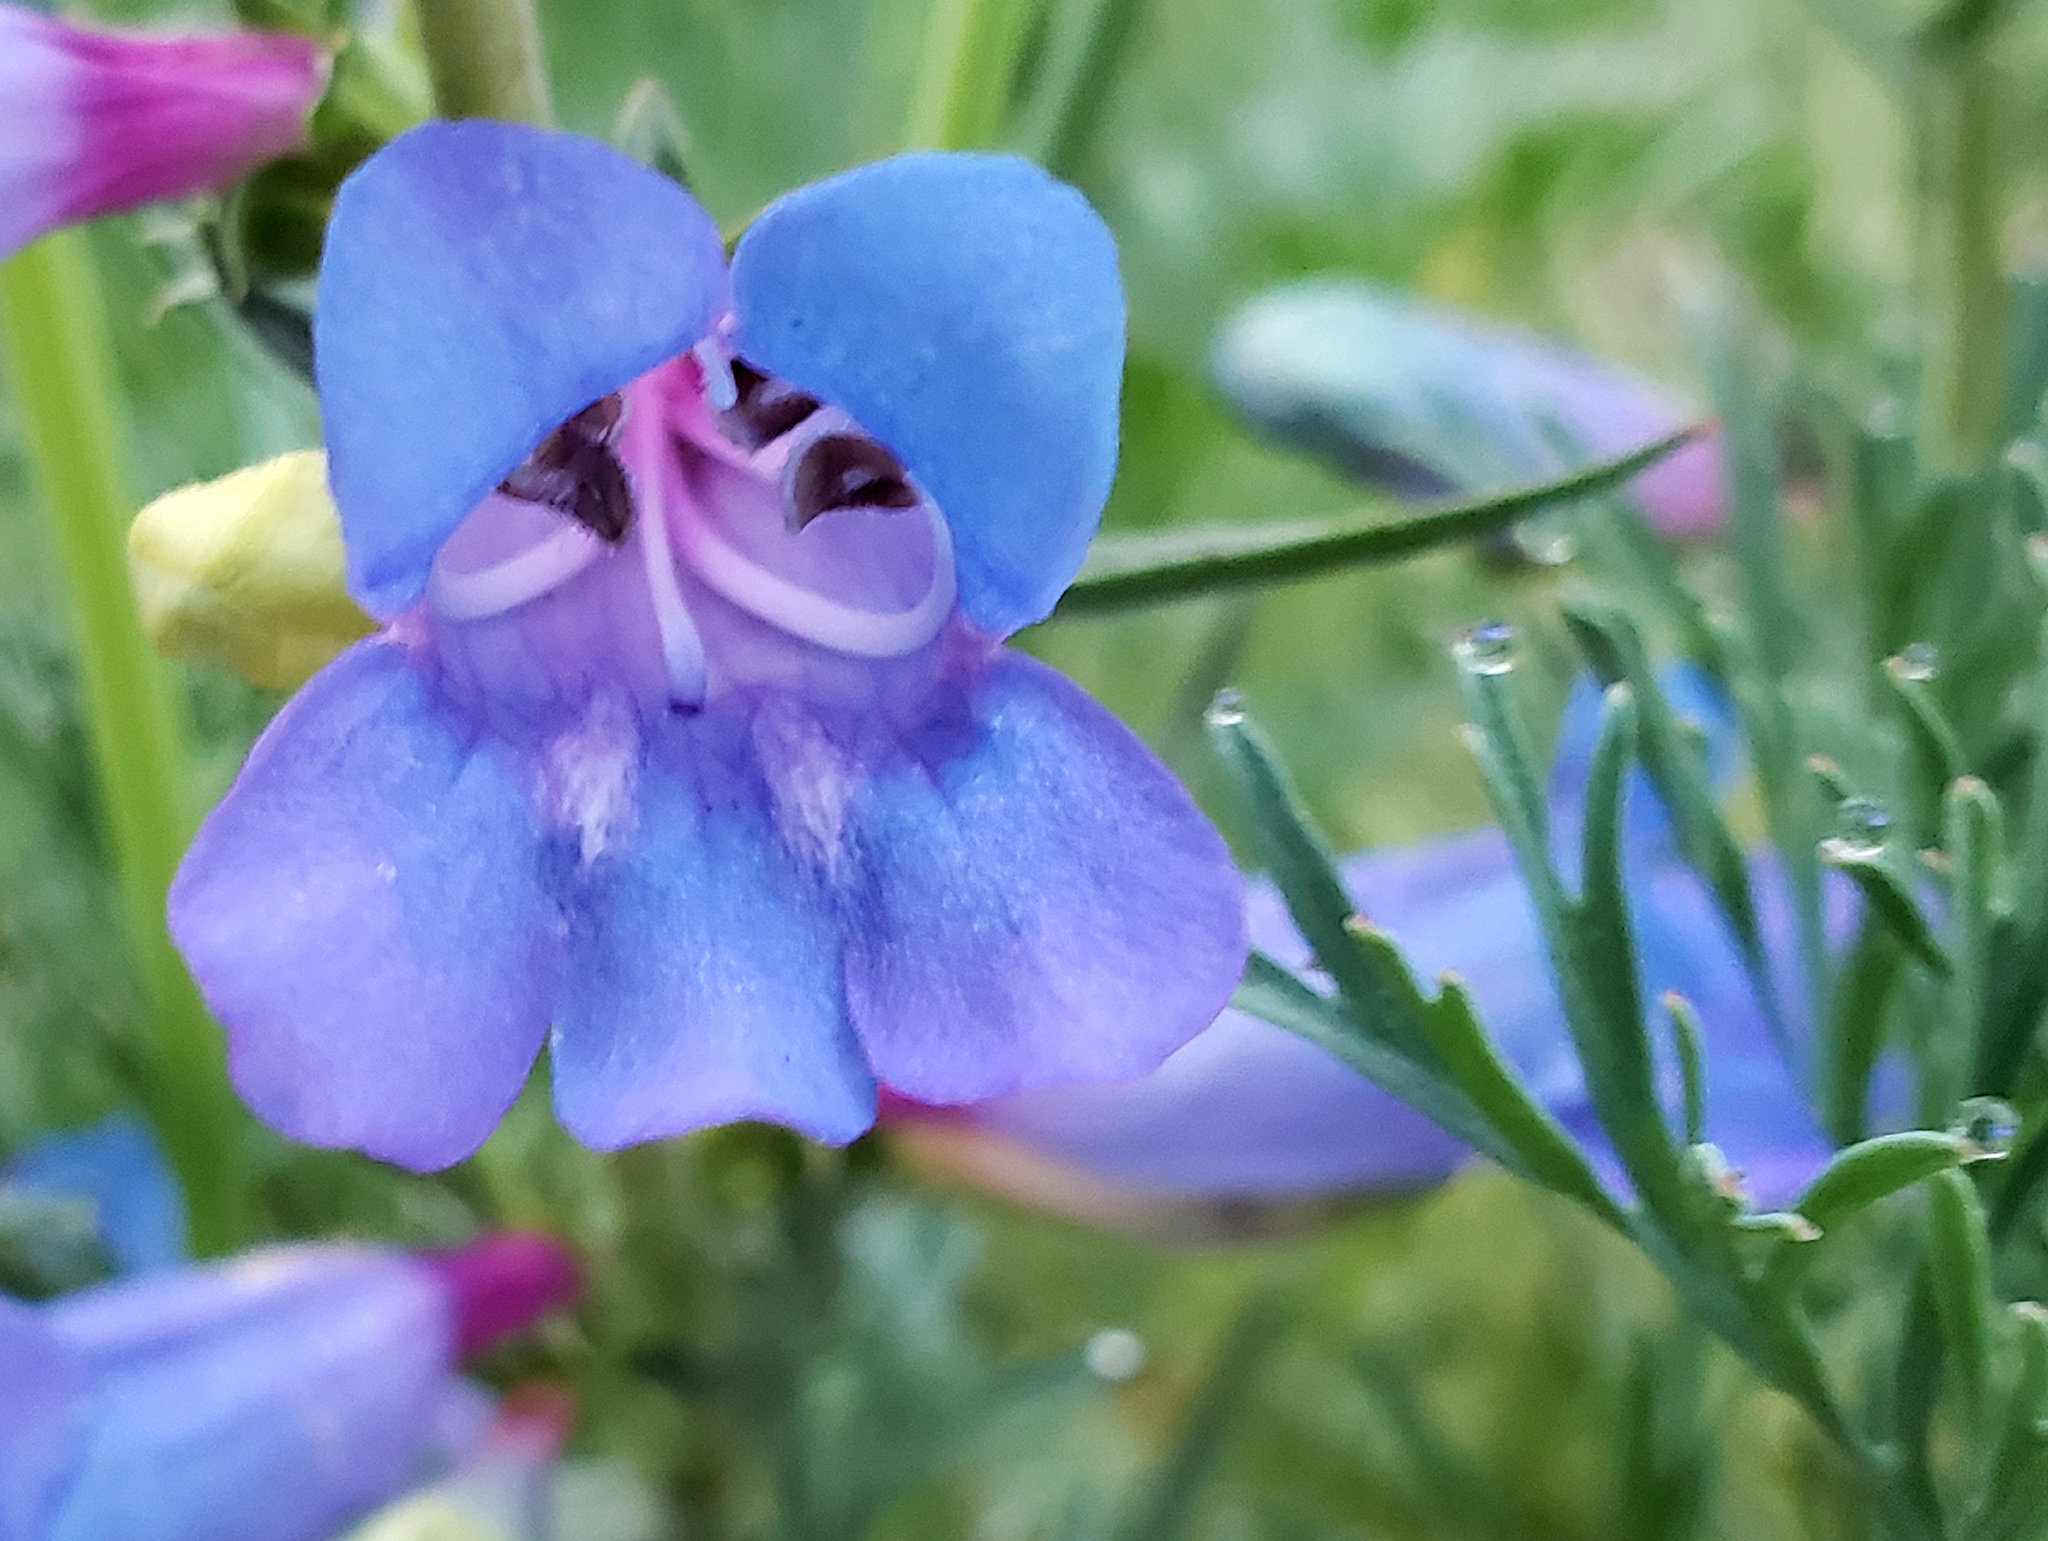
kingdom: Plantae
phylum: Tracheophyta
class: Magnoliopsida
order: Lamiales
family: Plantaginaceae
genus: Penstemon
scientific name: Penstemon heterophyllus
